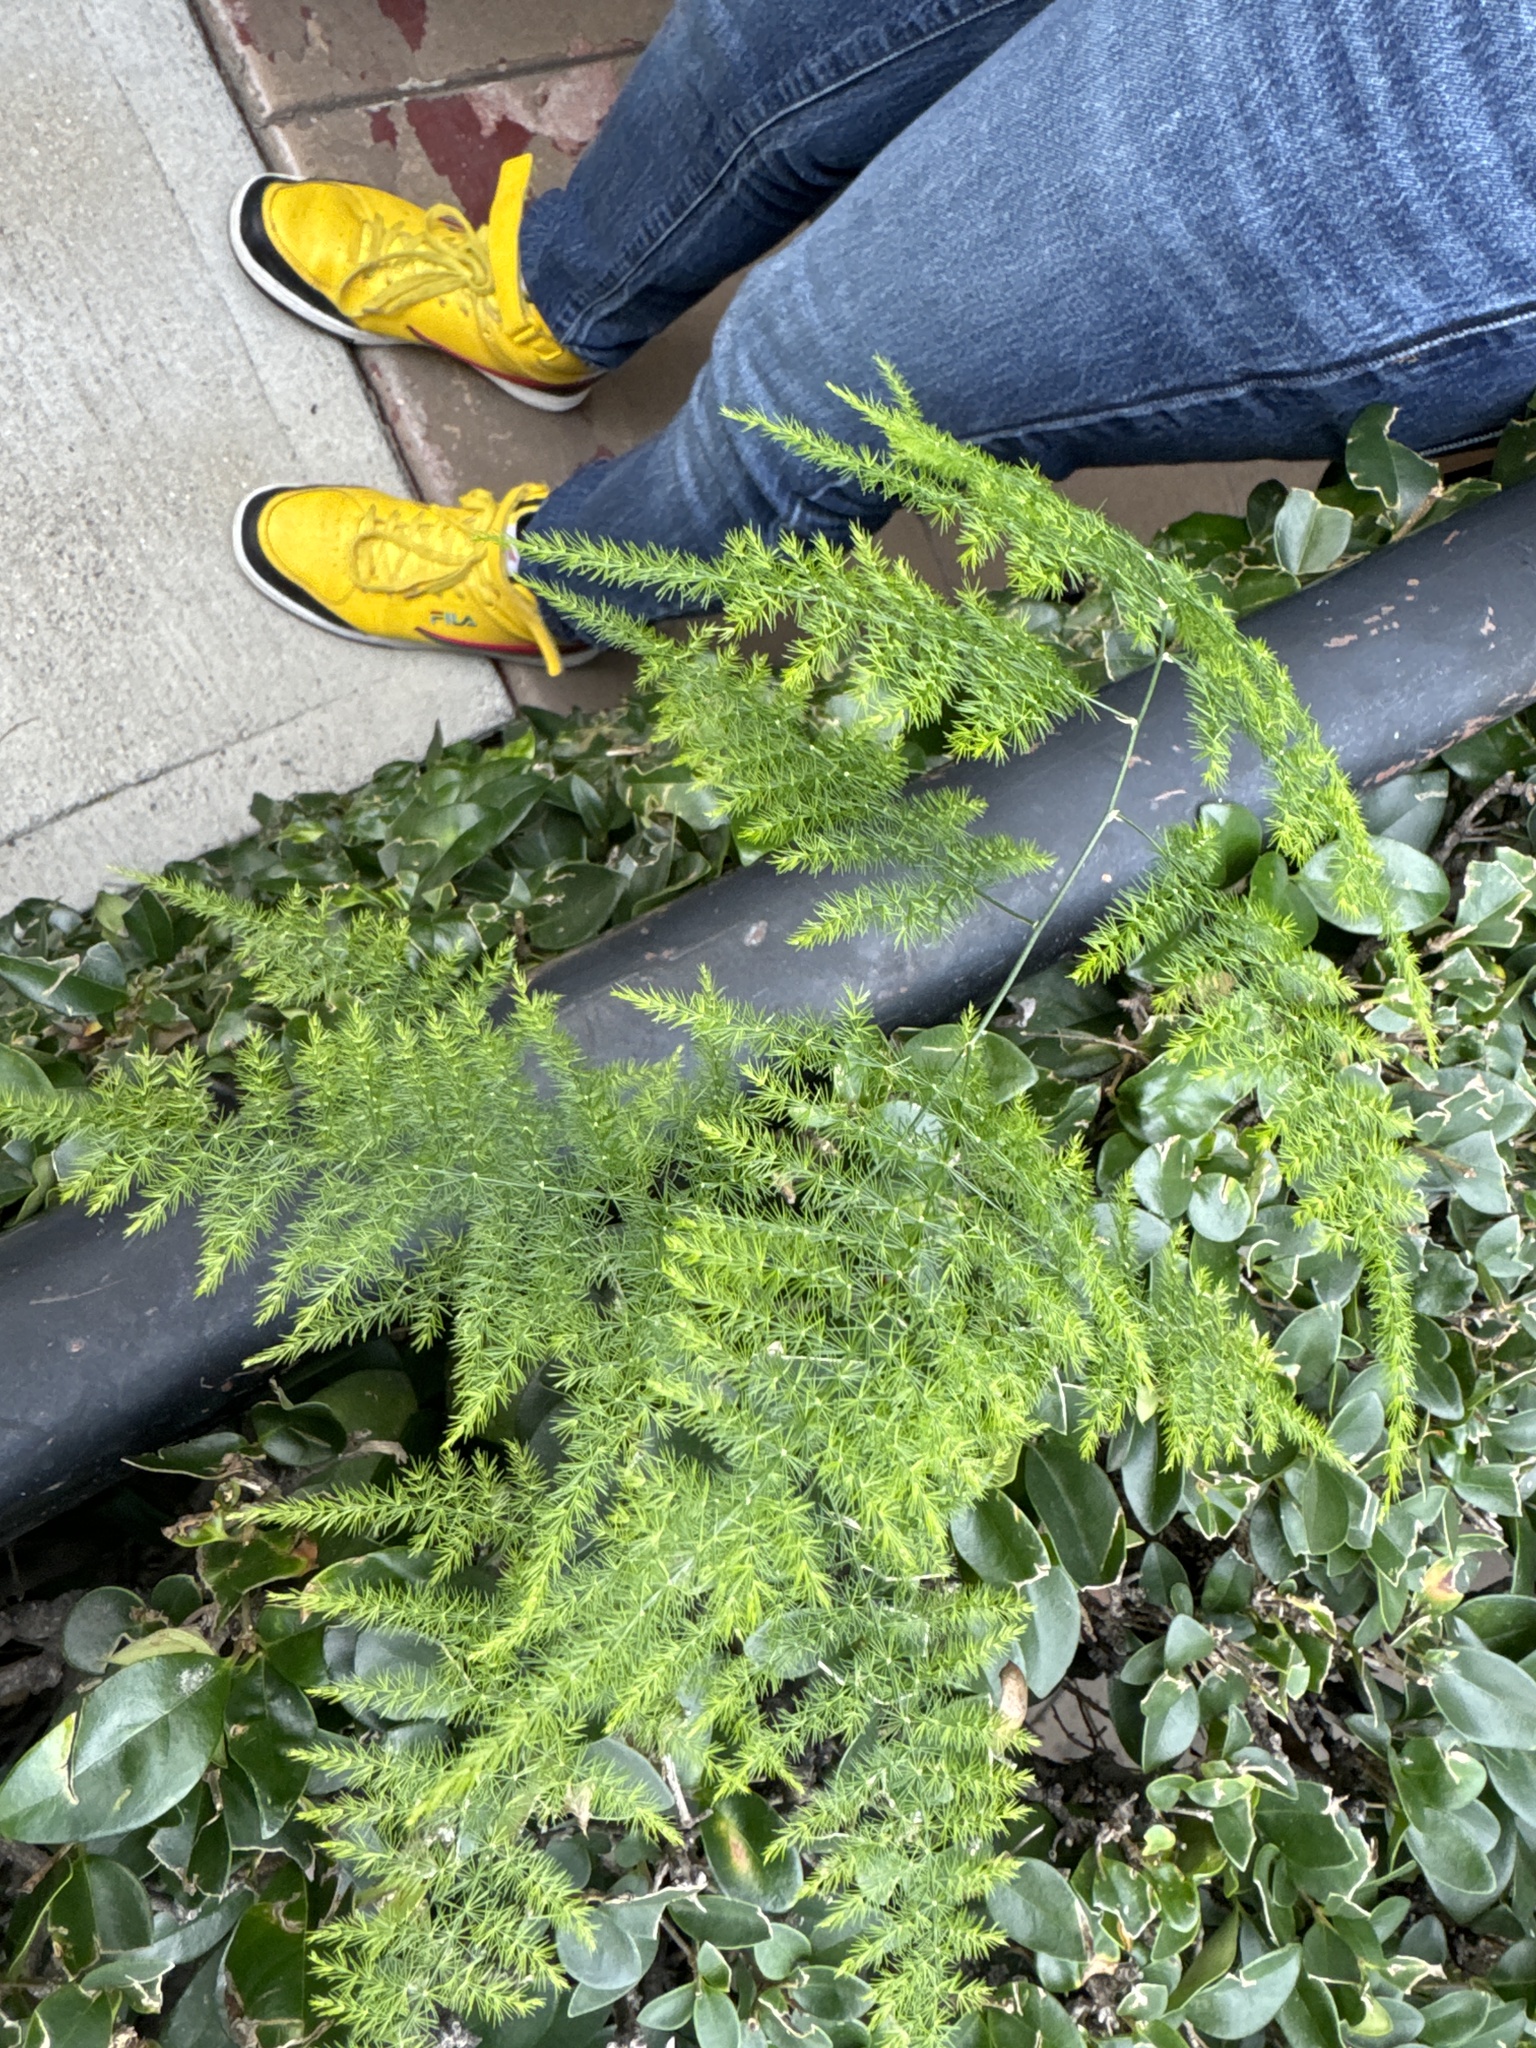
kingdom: Plantae
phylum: Tracheophyta
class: Liliopsida
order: Asparagales
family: Asparagaceae
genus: Asparagus
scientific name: Asparagus setaceus
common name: Common asparagus fern
